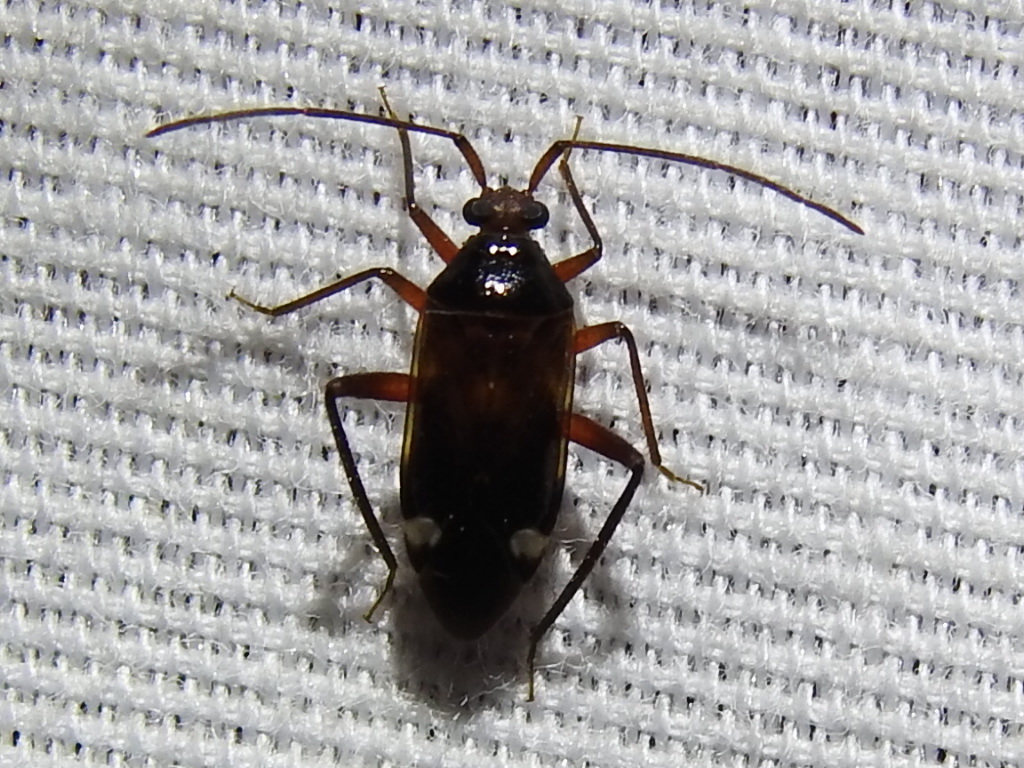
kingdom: Animalia
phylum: Arthropoda
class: Insecta
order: Hemiptera
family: Miridae
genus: Eustictus
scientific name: Eustictus albomaculatus
